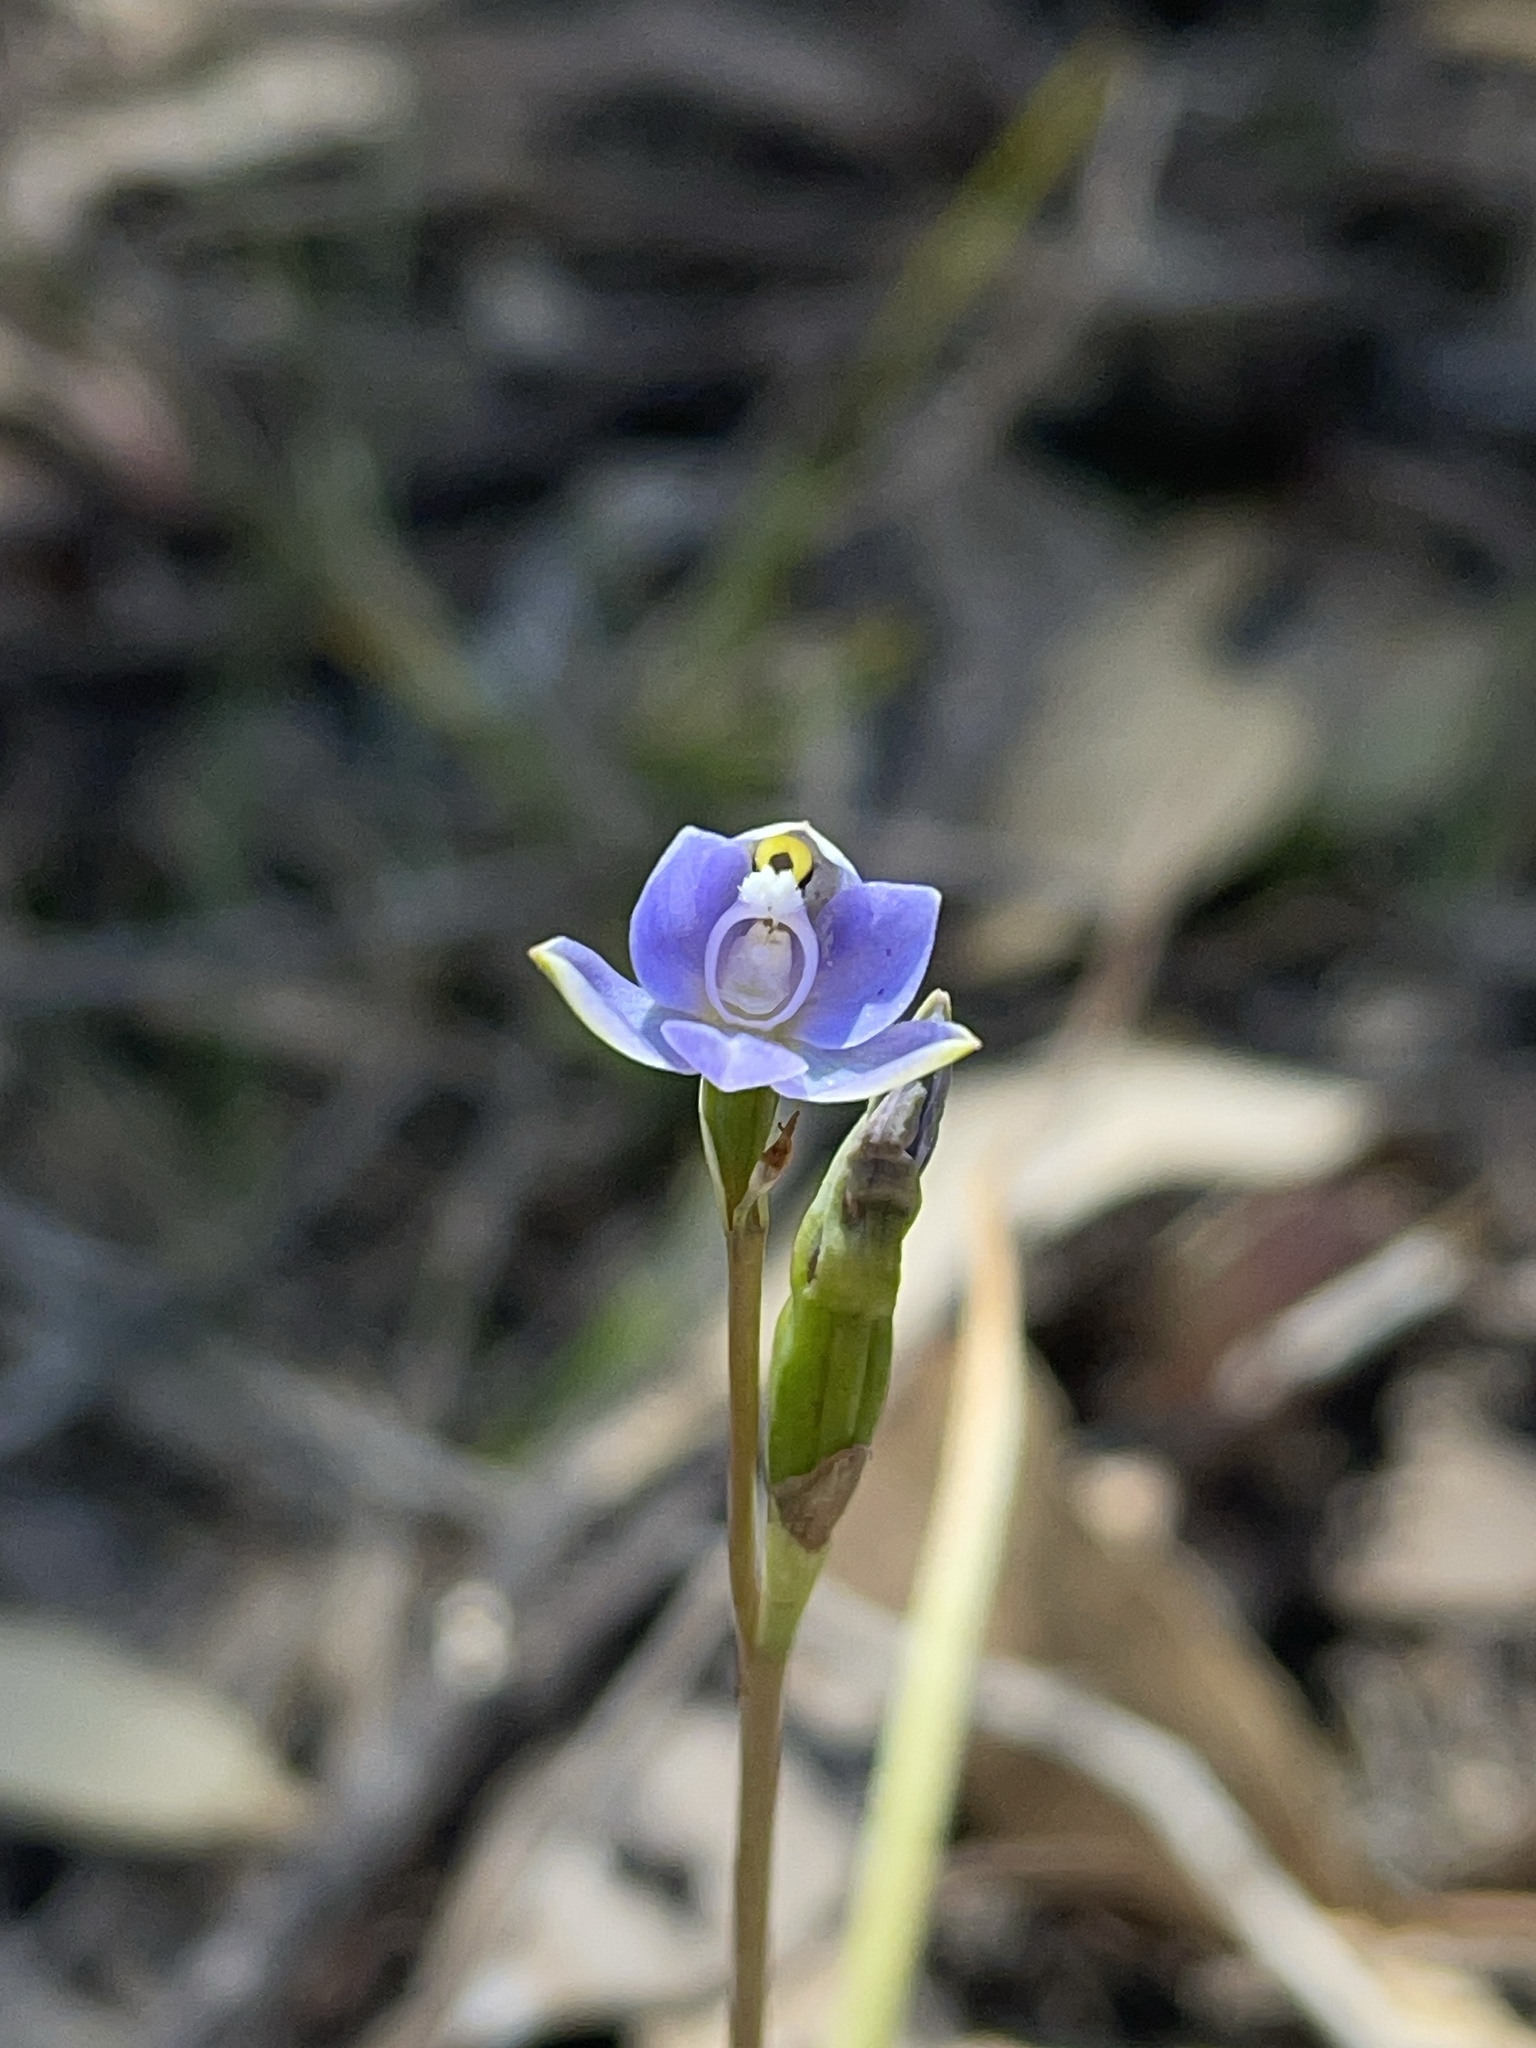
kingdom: Plantae
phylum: Tracheophyta
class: Liliopsida
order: Asparagales
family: Orchidaceae
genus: Thelymitra
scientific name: Thelymitra arenaria
